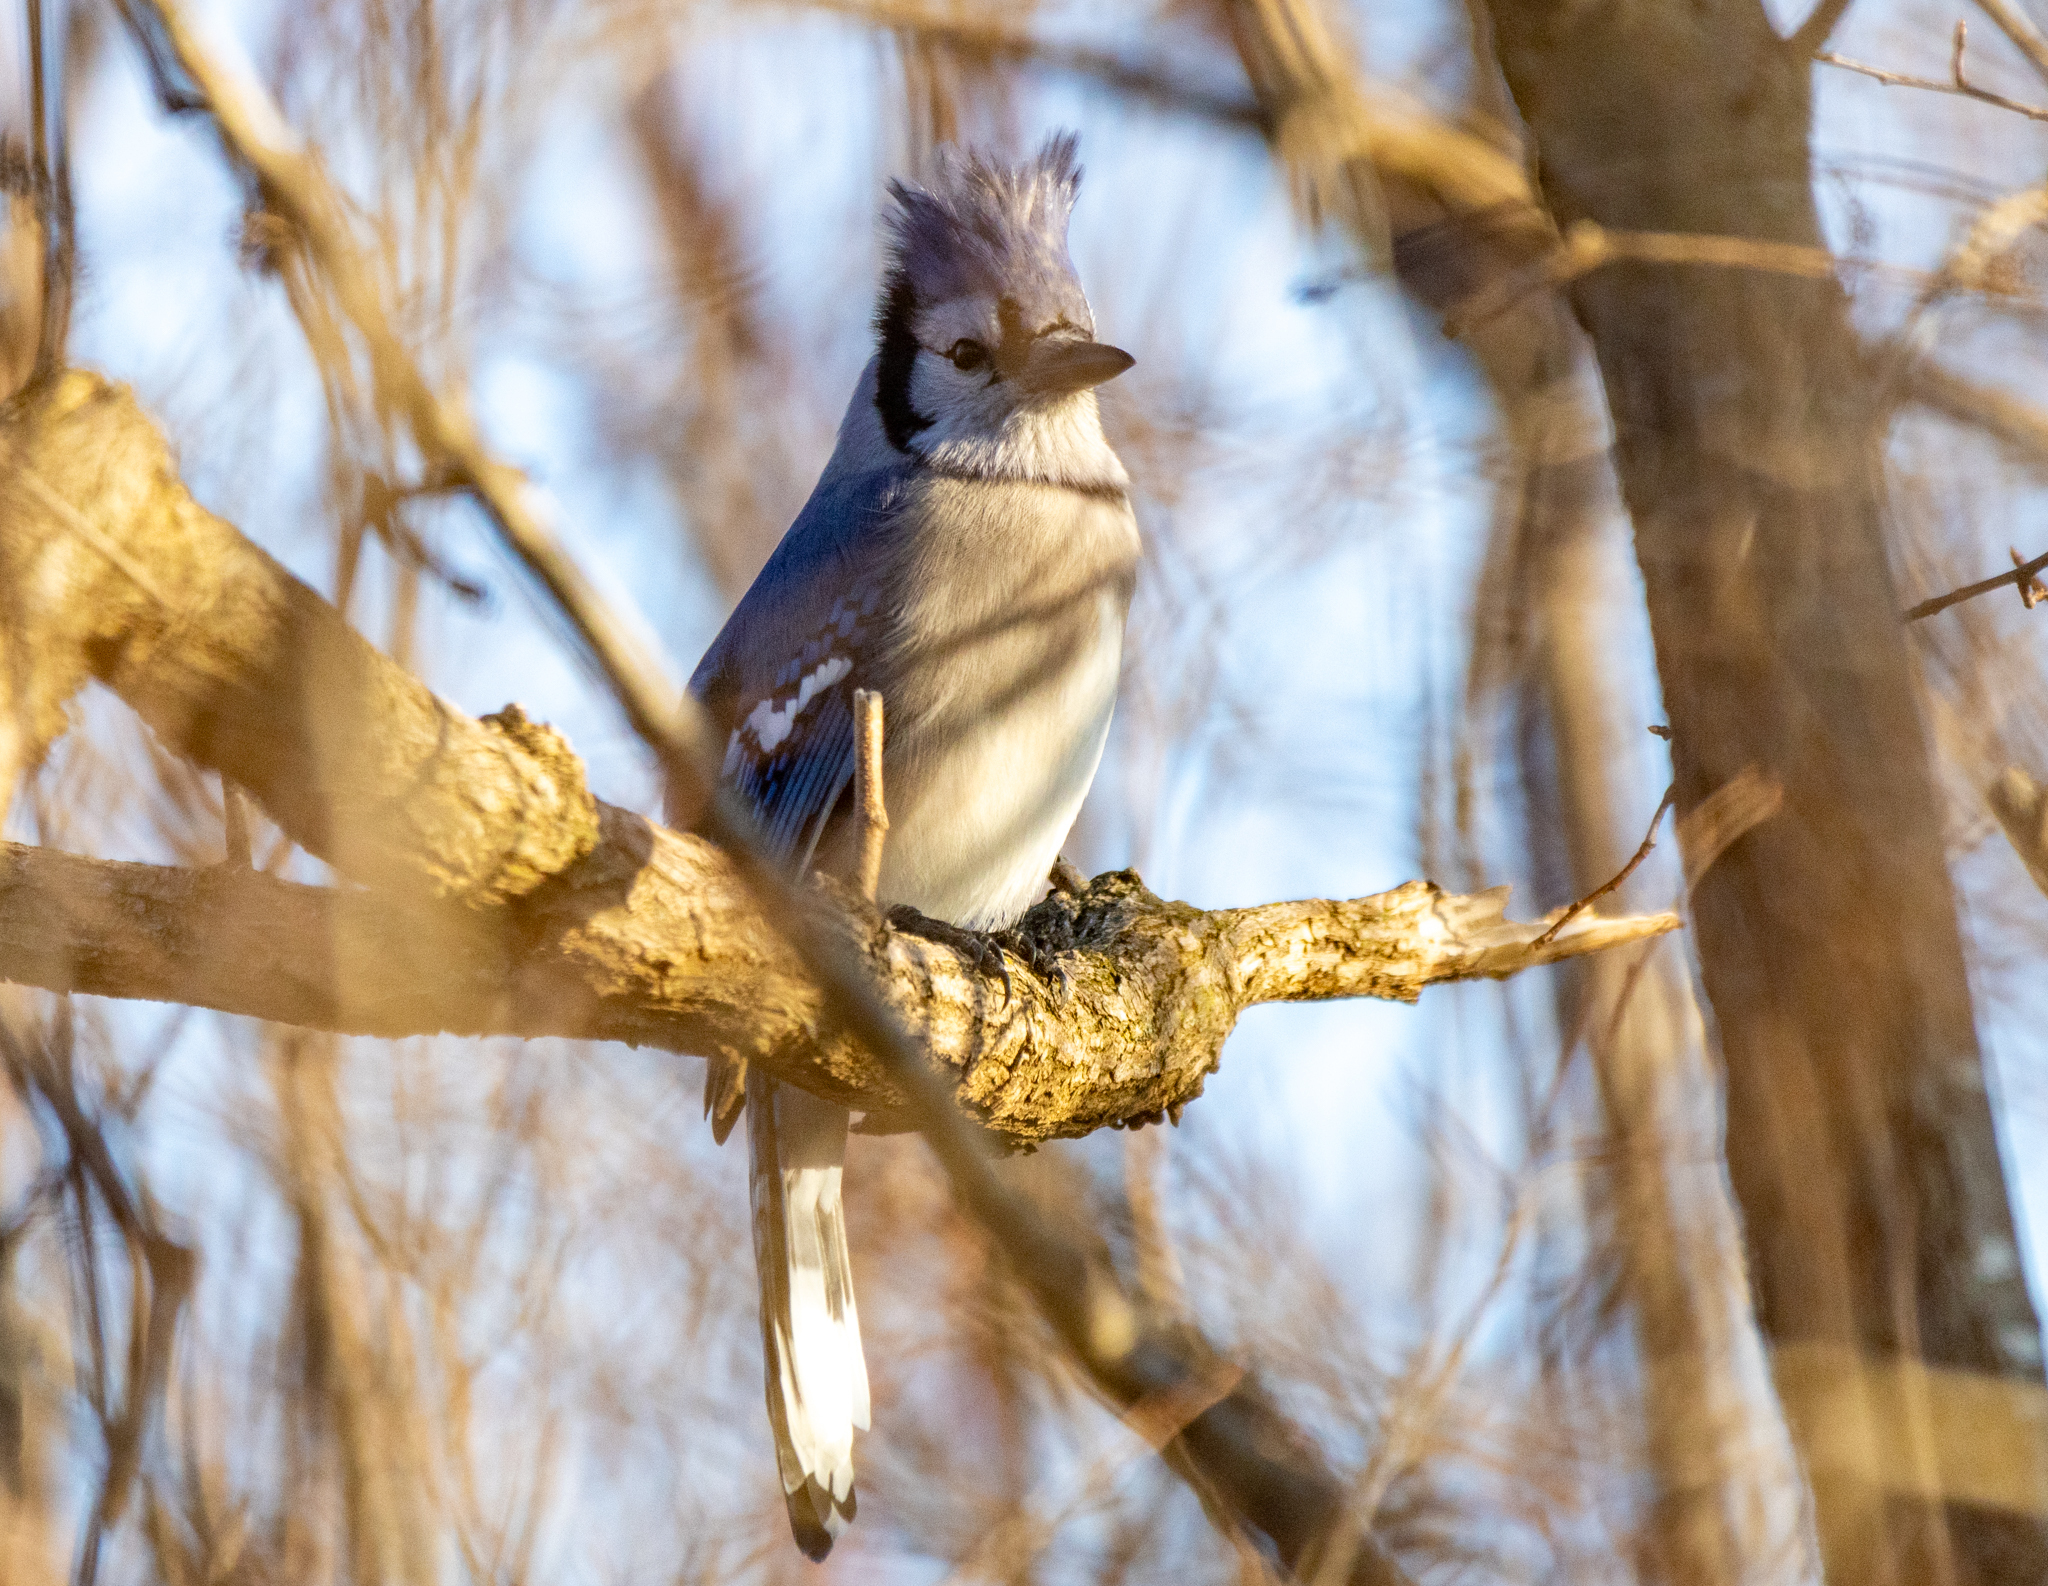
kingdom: Animalia
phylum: Chordata
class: Aves
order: Passeriformes
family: Corvidae
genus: Cyanocitta
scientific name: Cyanocitta cristata
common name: Blue jay
